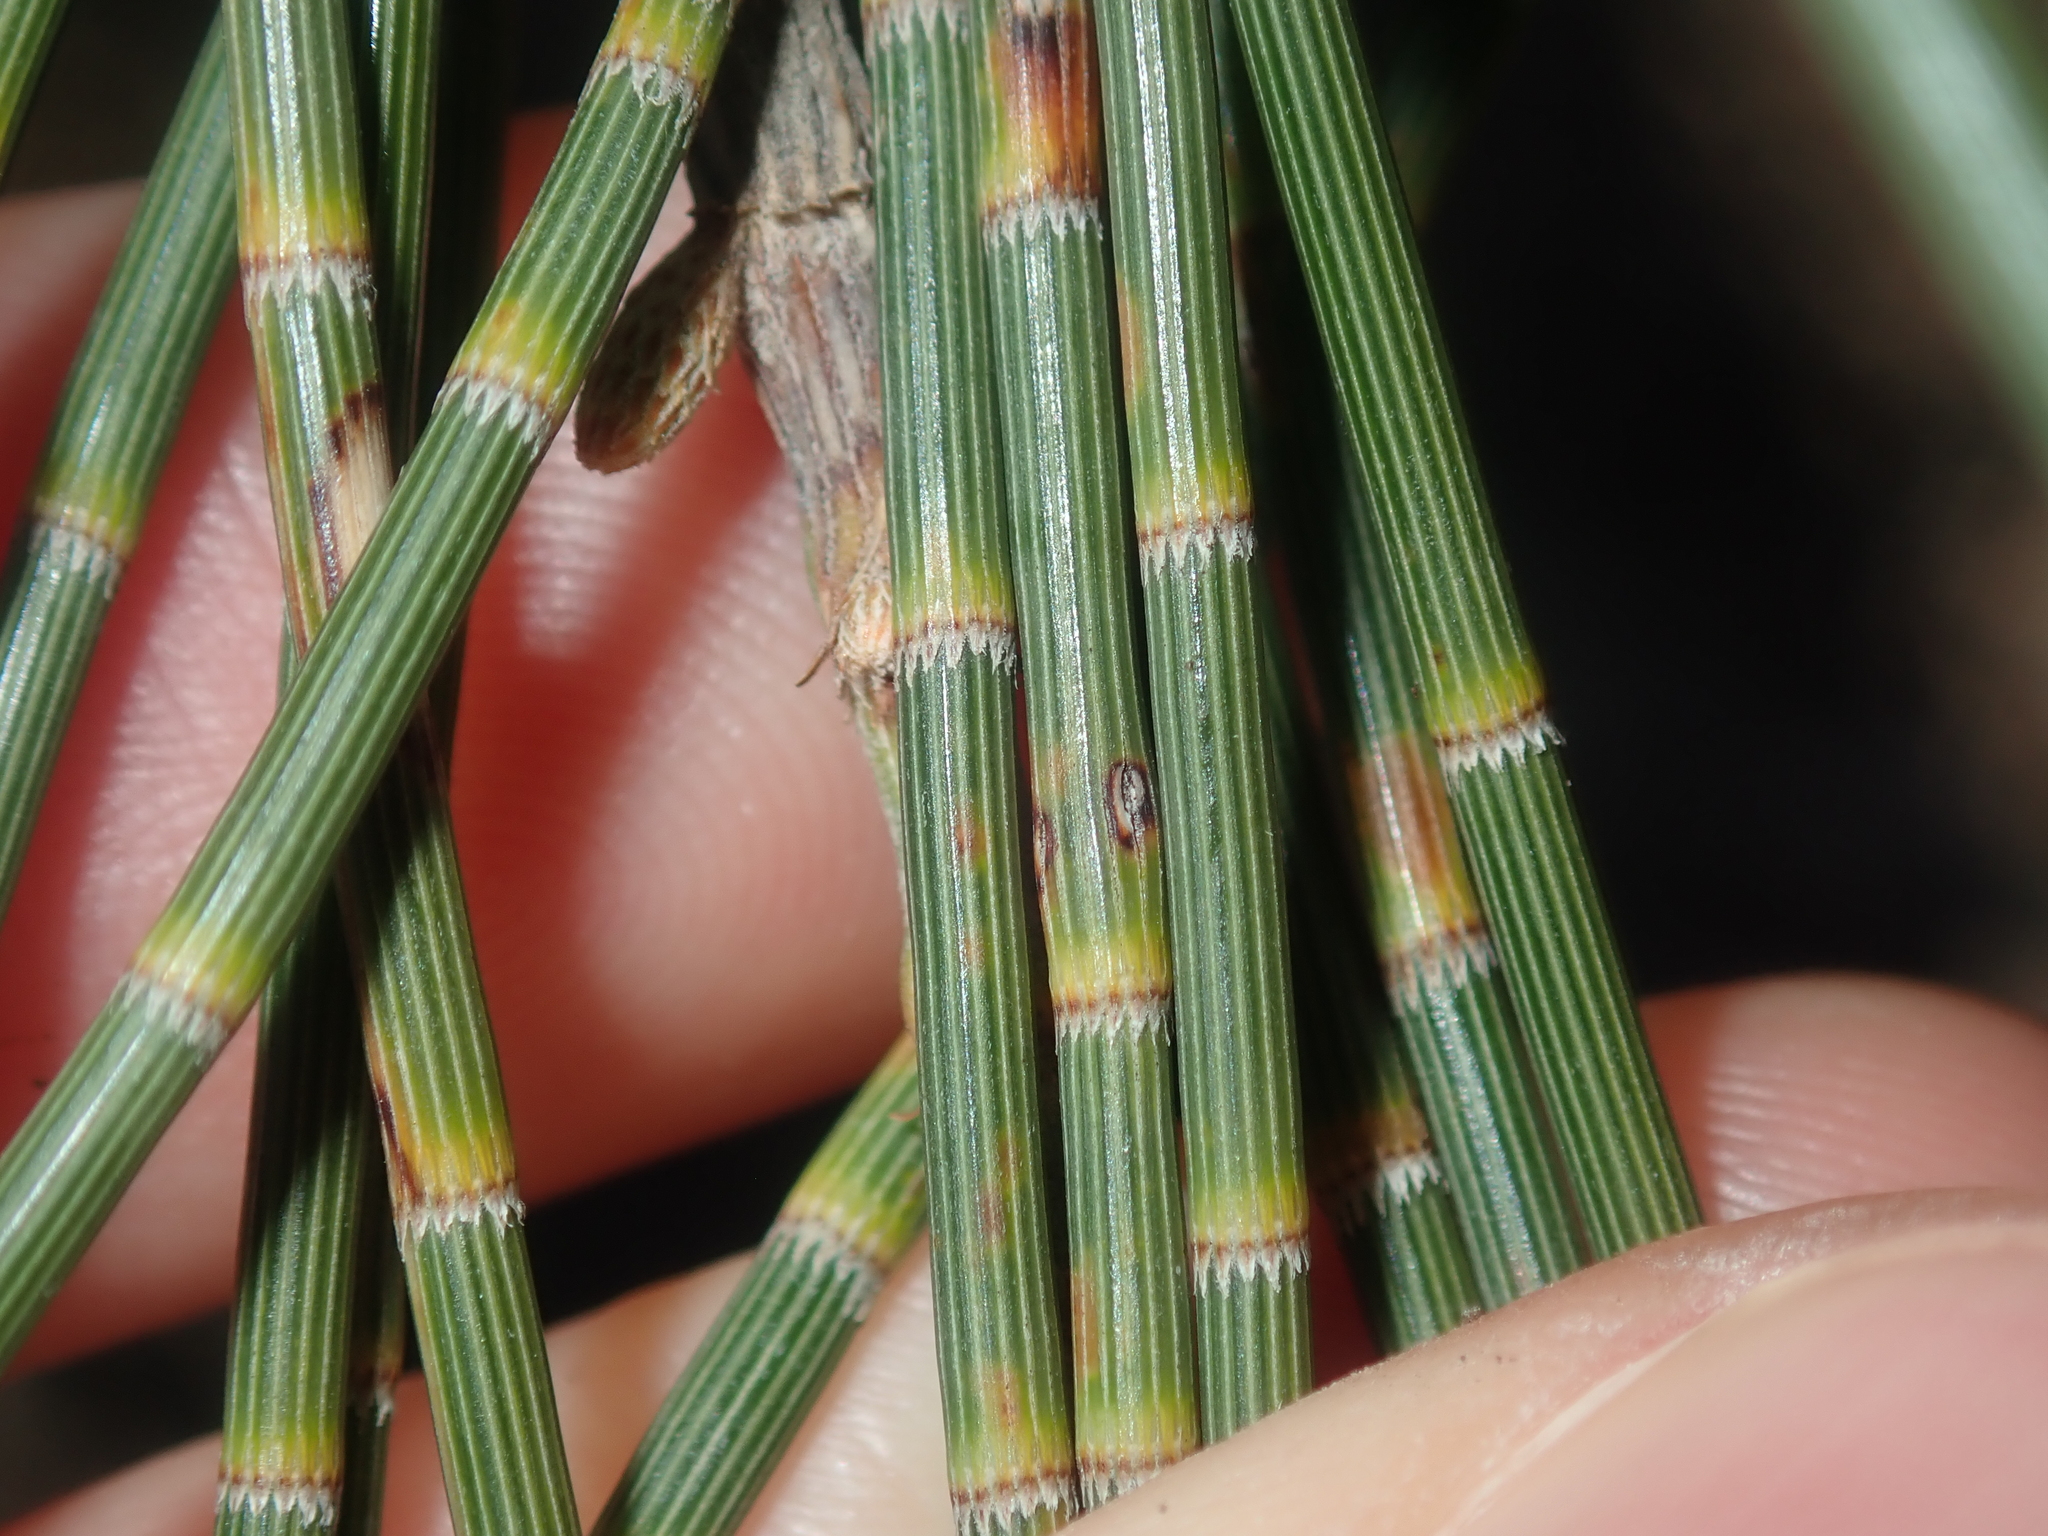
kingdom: Plantae
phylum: Tracheophyta
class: Magnoliopsida
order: Fagales
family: Casuarinaceae
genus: Casuarina
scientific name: Casuarina obesa
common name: Swamp she-oak
